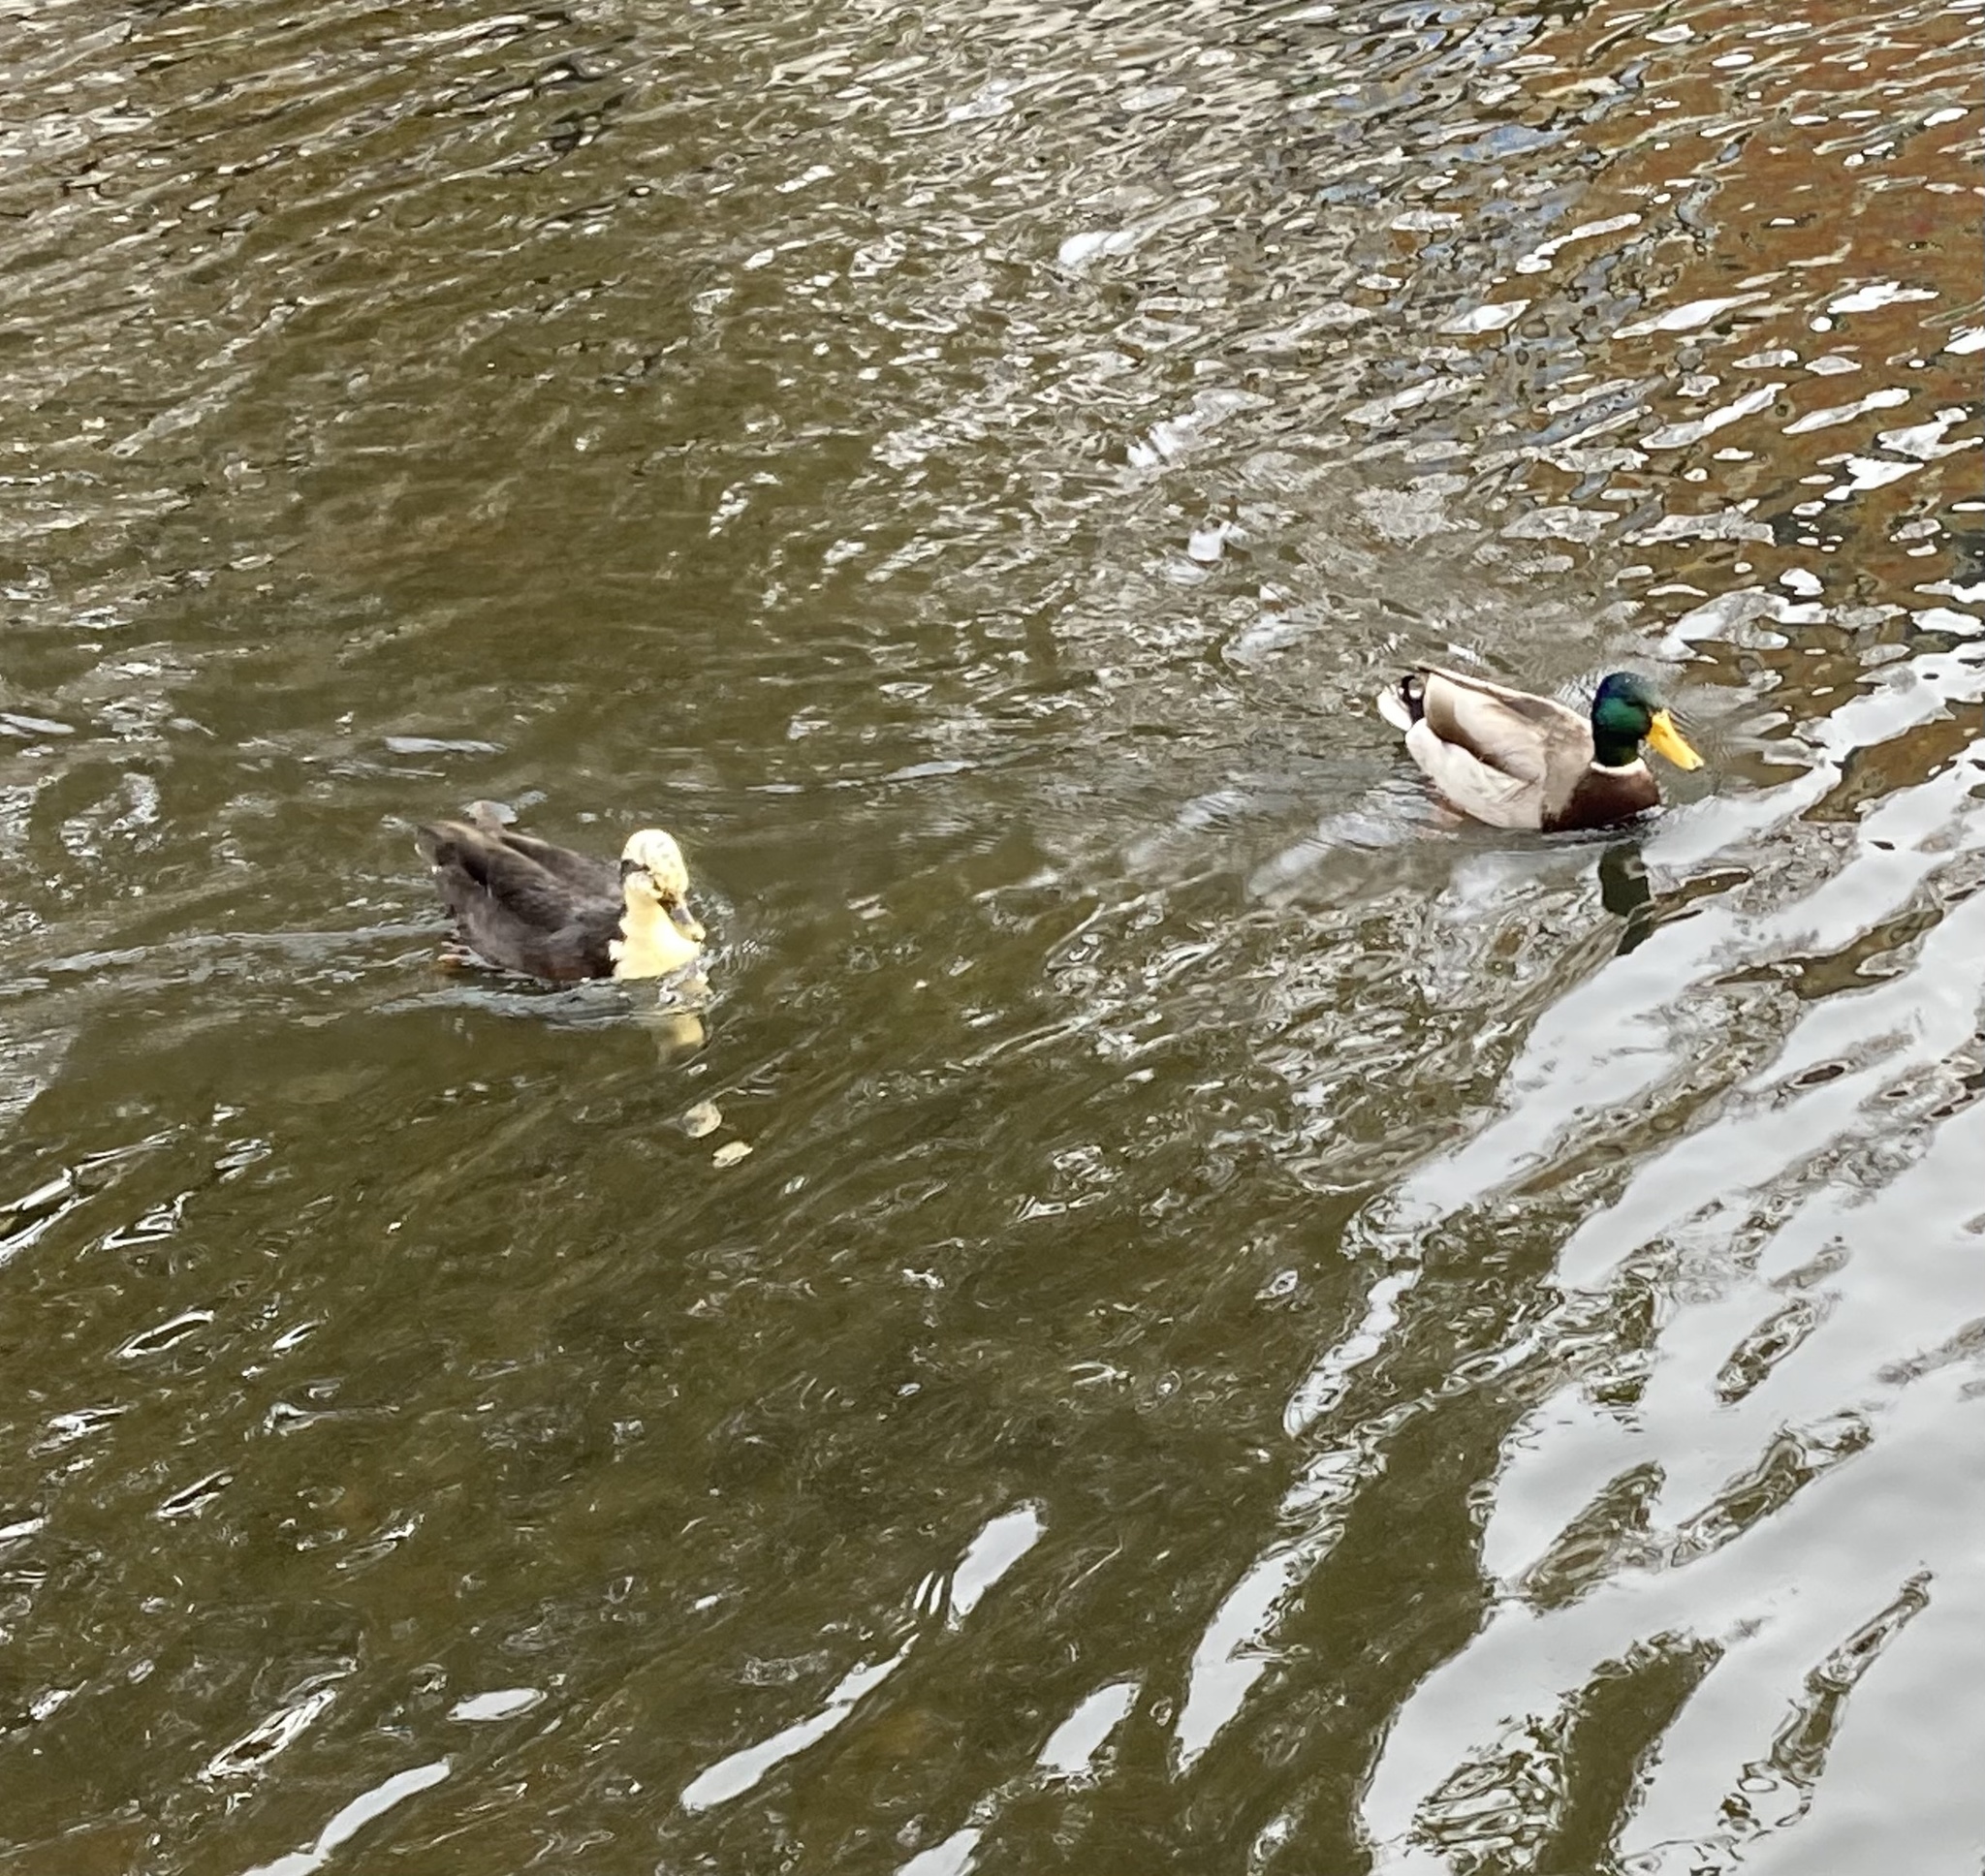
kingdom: Animalia
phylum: Chordata
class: Aves
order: Anseriformes
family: Anatidae
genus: Anas
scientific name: Anas platyrhynchos
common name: Mallard
